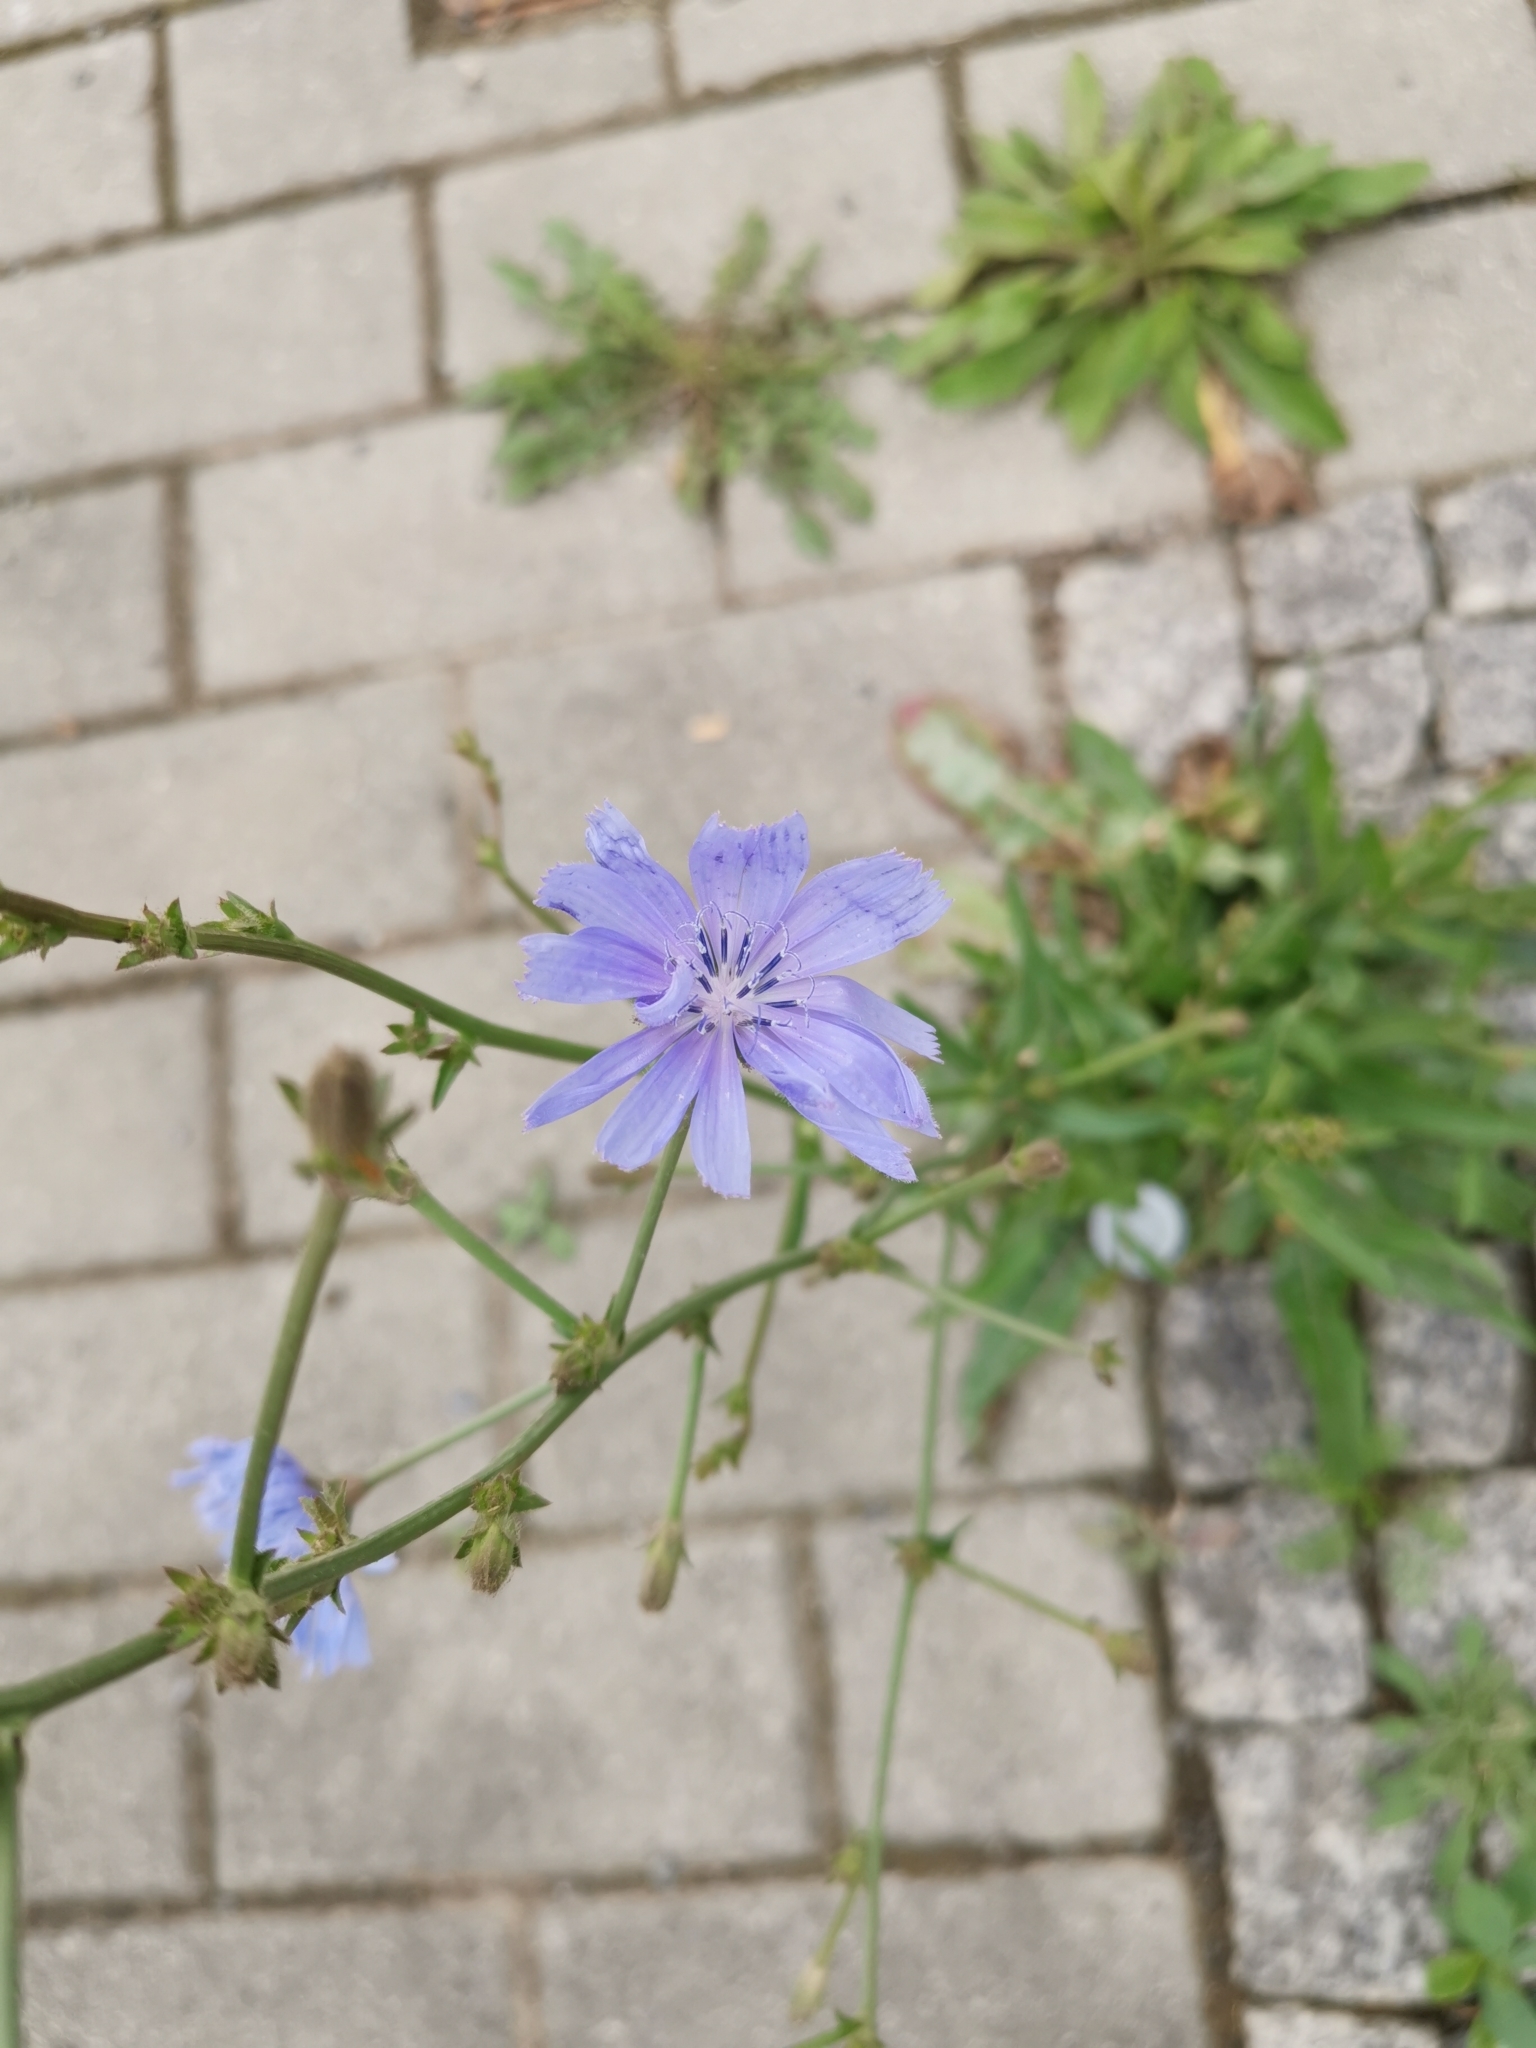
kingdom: Plantae
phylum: Tracheophyta
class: Magnoliopsida
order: Asterales
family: Asteraceae
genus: Cichorium
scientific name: Cichorium intybus
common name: Chicory
